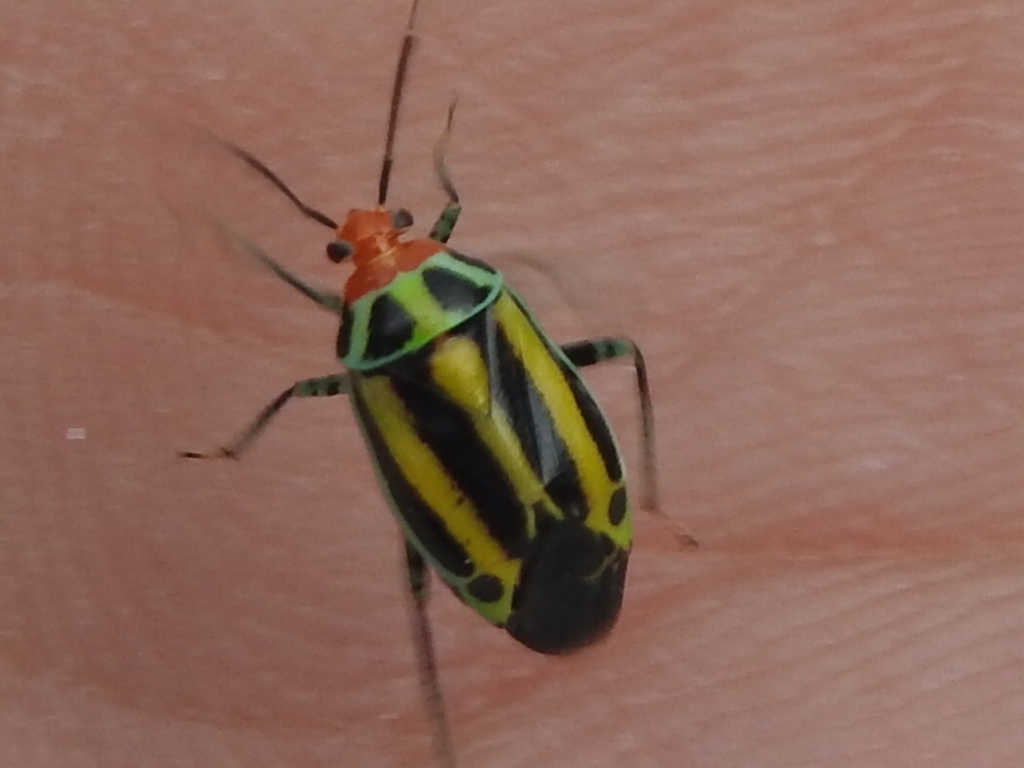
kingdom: Animalia
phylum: Arthropoda
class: Insecta
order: Hemiptera
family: Miridae
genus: Poecilocapsus
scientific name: Poecilocapsus lineatus
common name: Four-lined plant bug
